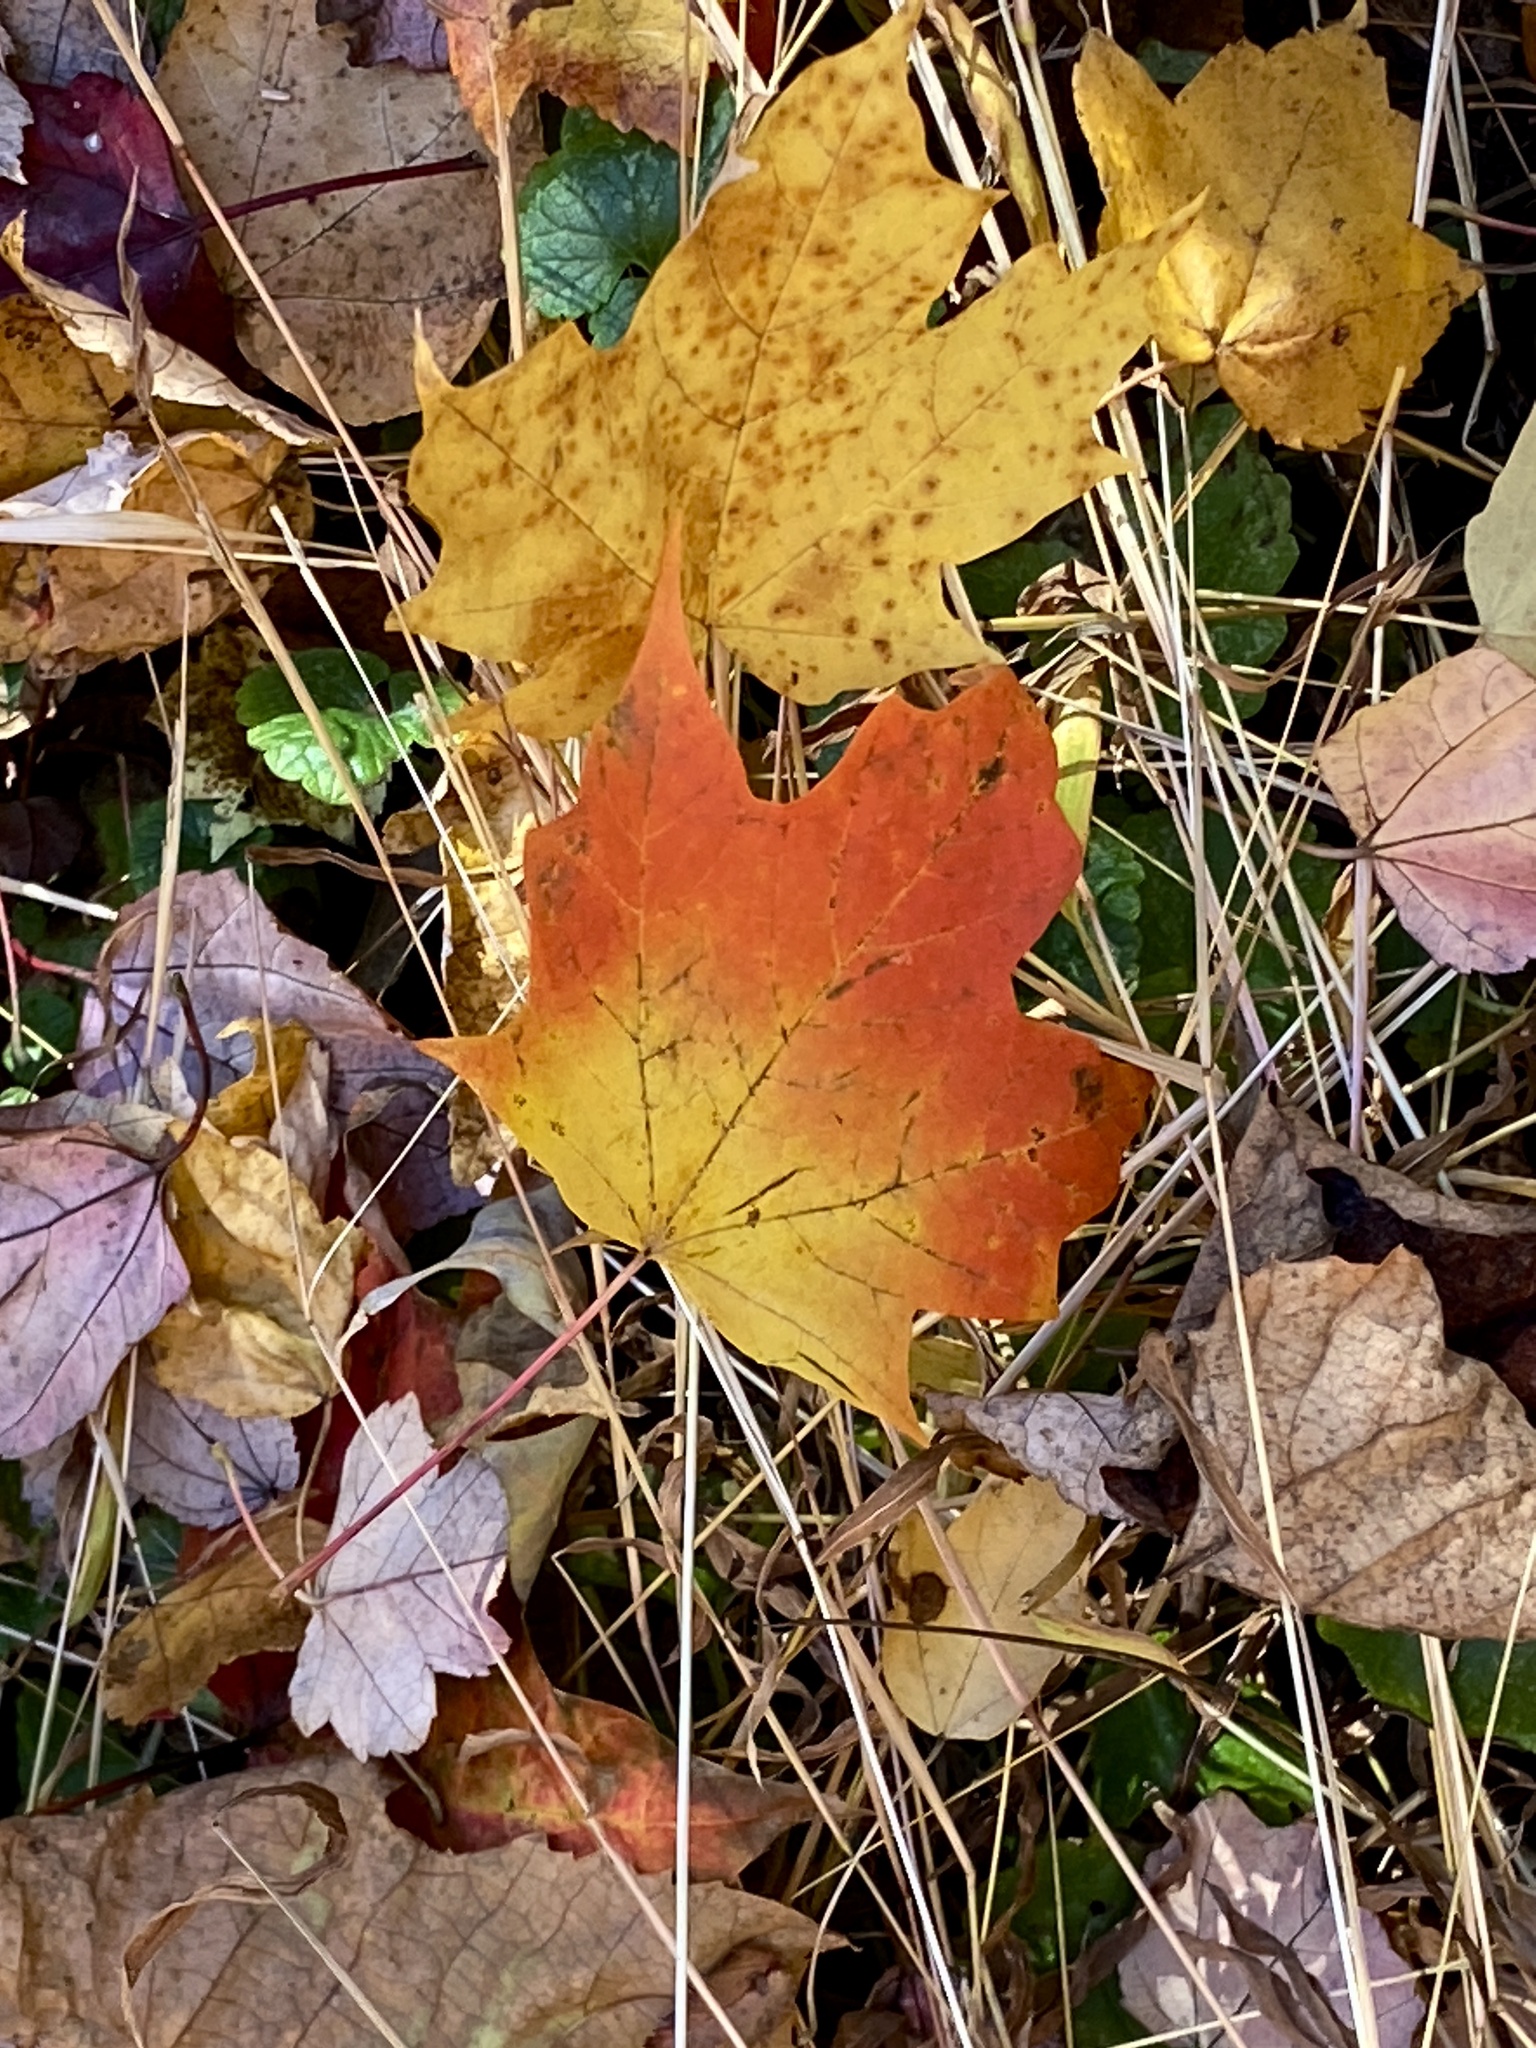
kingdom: Plantae
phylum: Tracheophyta
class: Magnoliopsida
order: Sapindales
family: Sapindaceae
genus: Acer
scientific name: Acer saccharum
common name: Sugar maple
